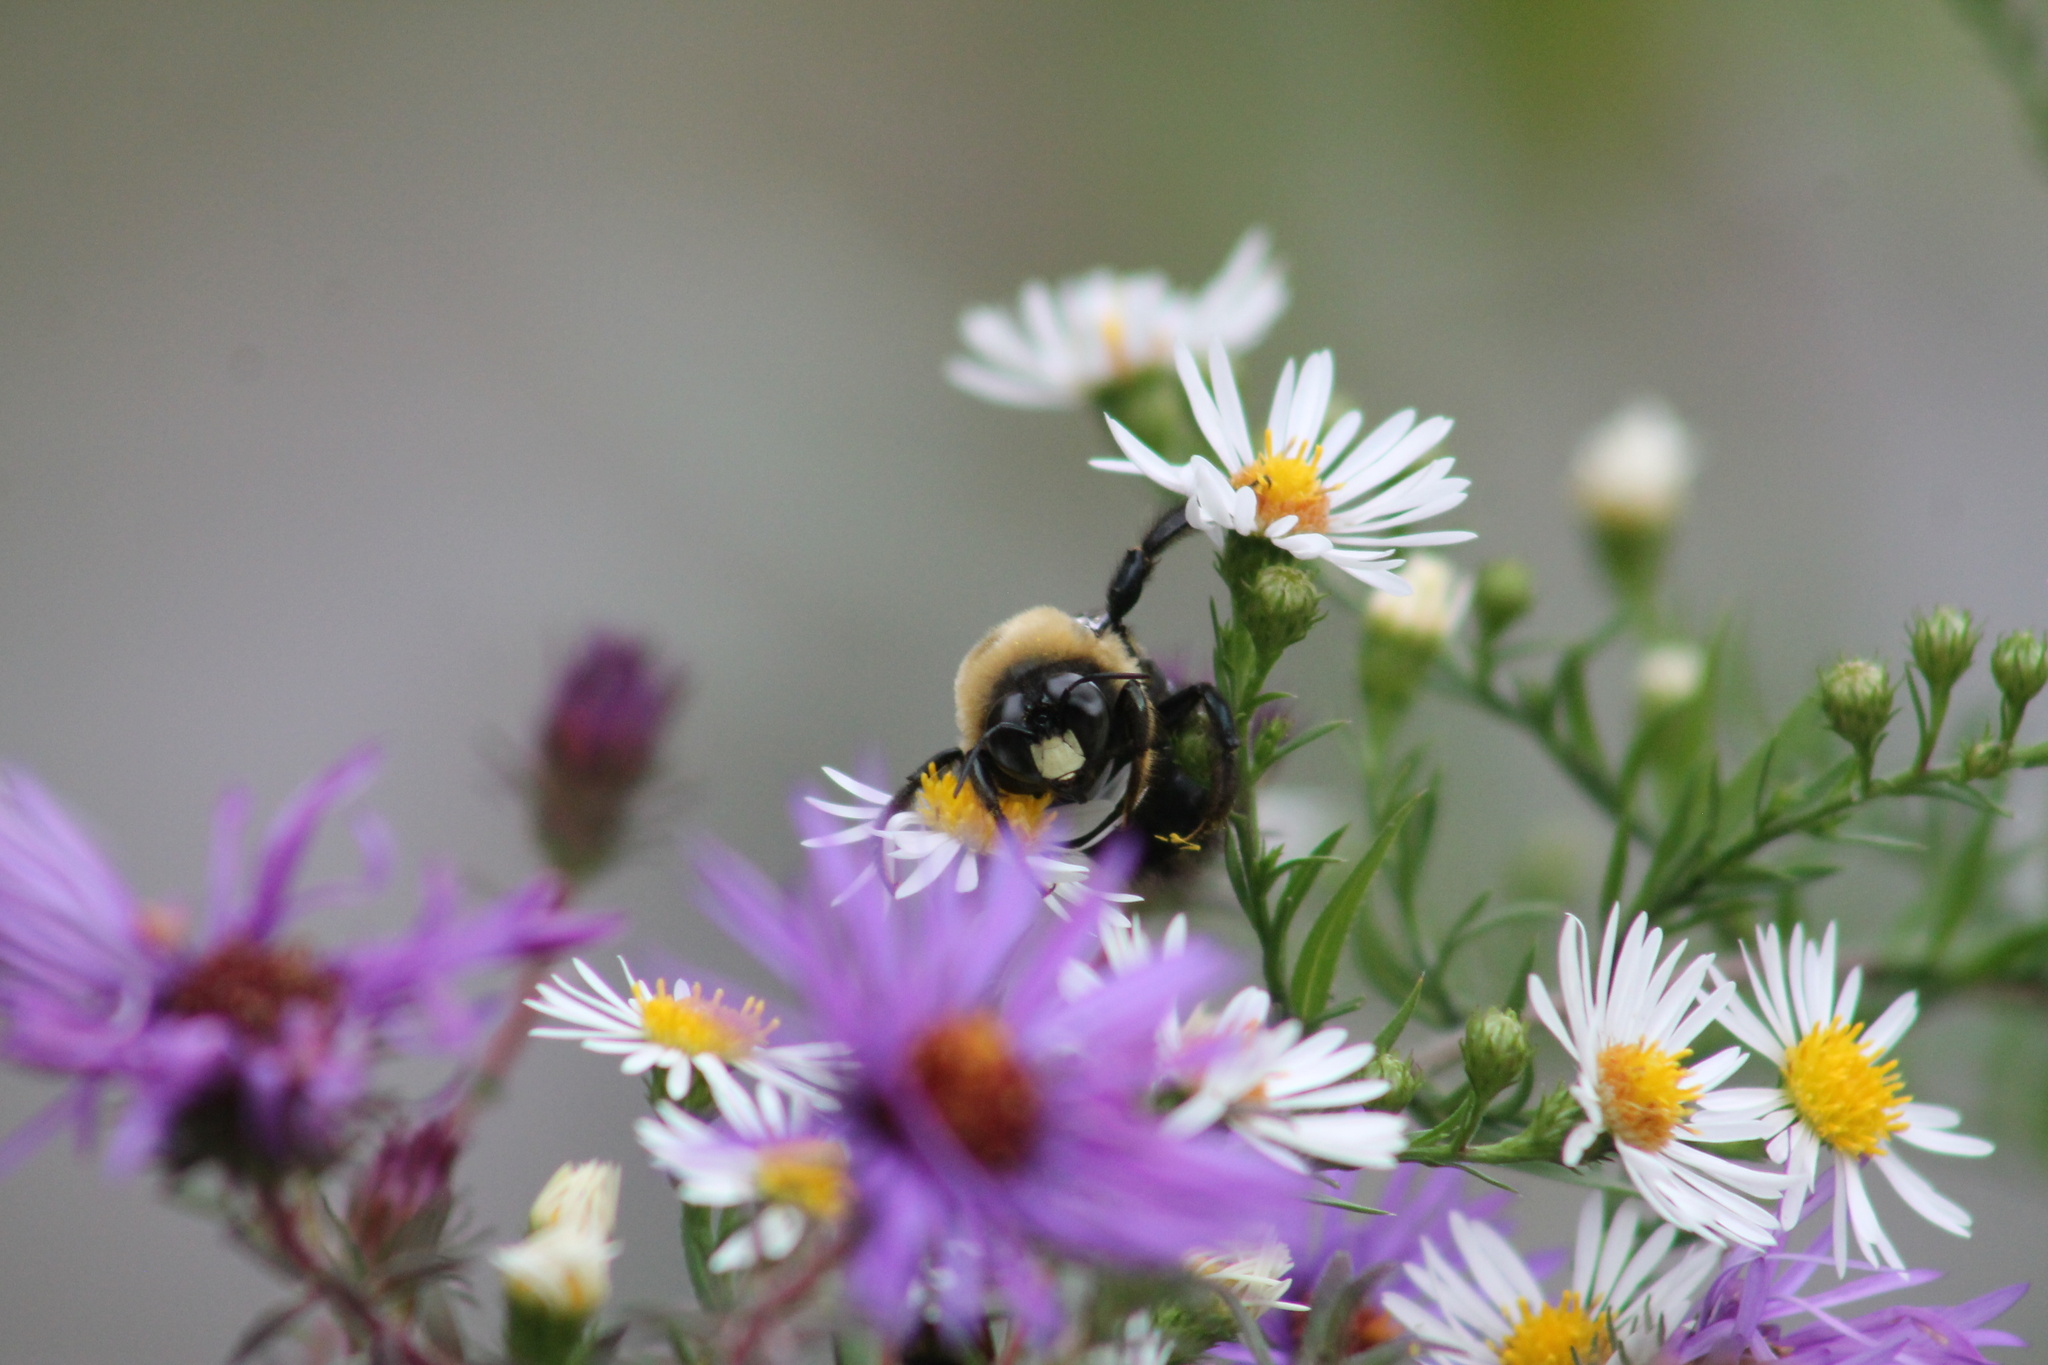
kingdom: Animalia
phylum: Arthropoda
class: Insecta
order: Hymenoptera
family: Apidae
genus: Xylocopa
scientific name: Xylocopa virginica
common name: Carpenter bee
